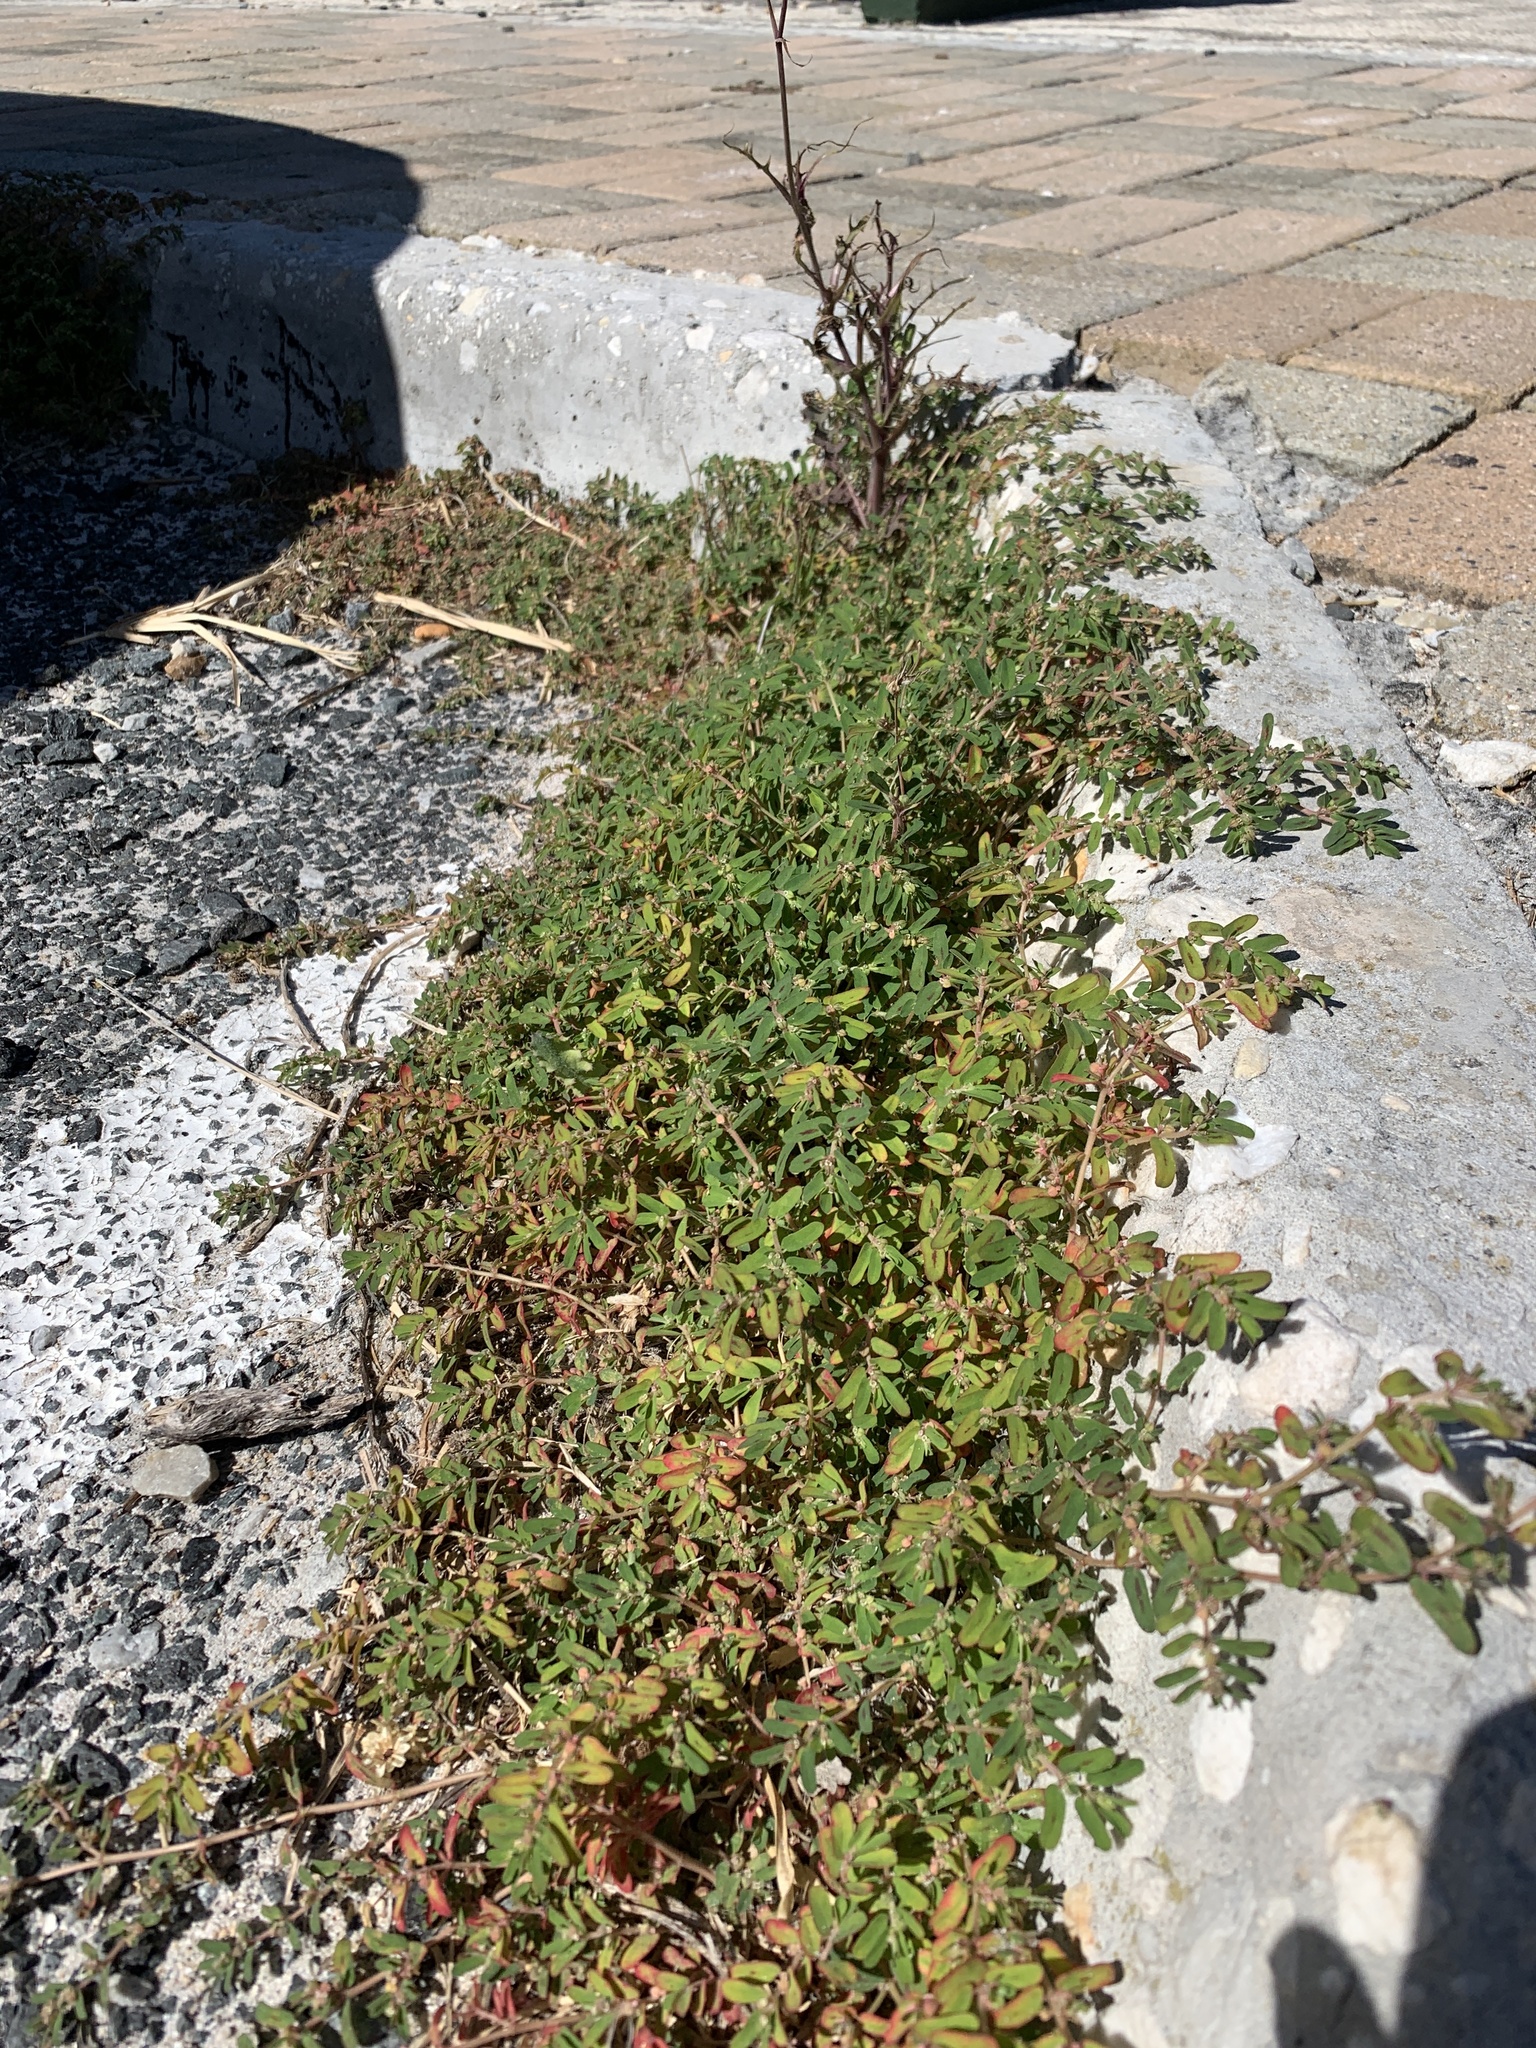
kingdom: Plantae
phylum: Tracheophyta
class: Magnoliopsida
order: Malpighiales
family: Euphorbiaceae
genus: Euphorbia
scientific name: Euphorbia maculata
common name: Spotted spurge
